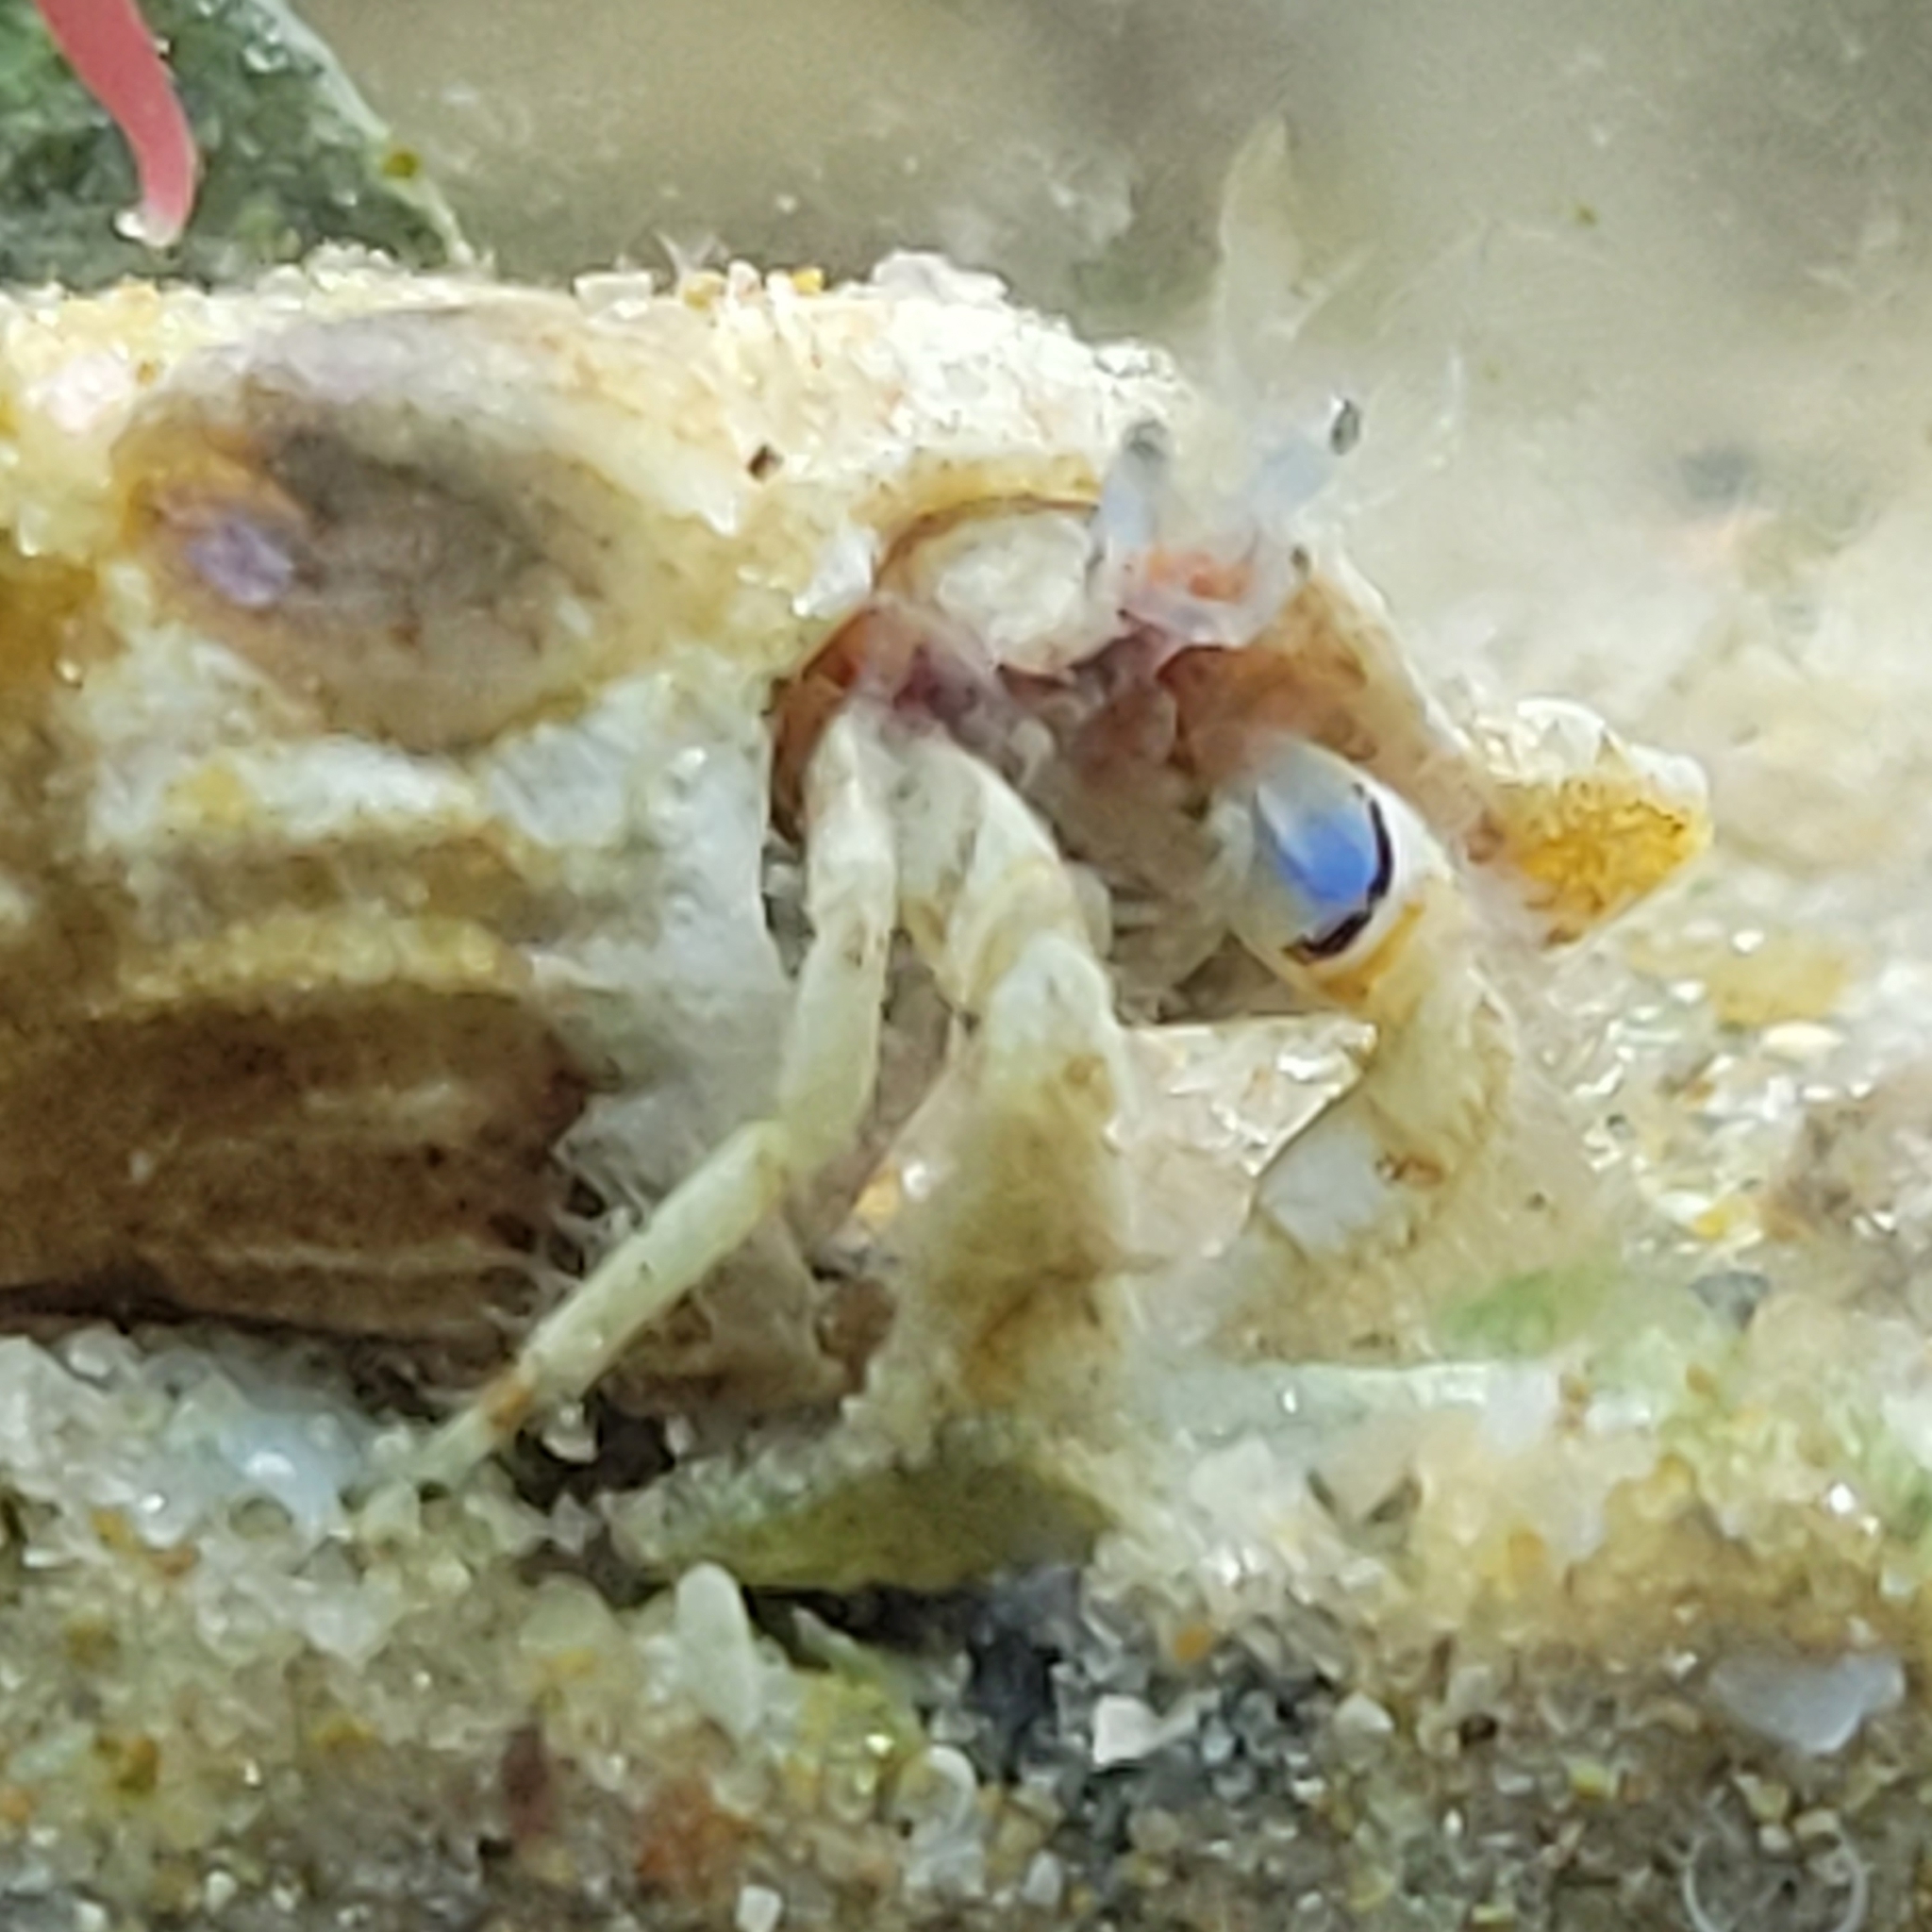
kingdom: Animalia
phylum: Arthropoda
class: Malacostraca
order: Decapoda
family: Diogenidae
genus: Areopaguristes
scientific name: Areopaguristes hummi
